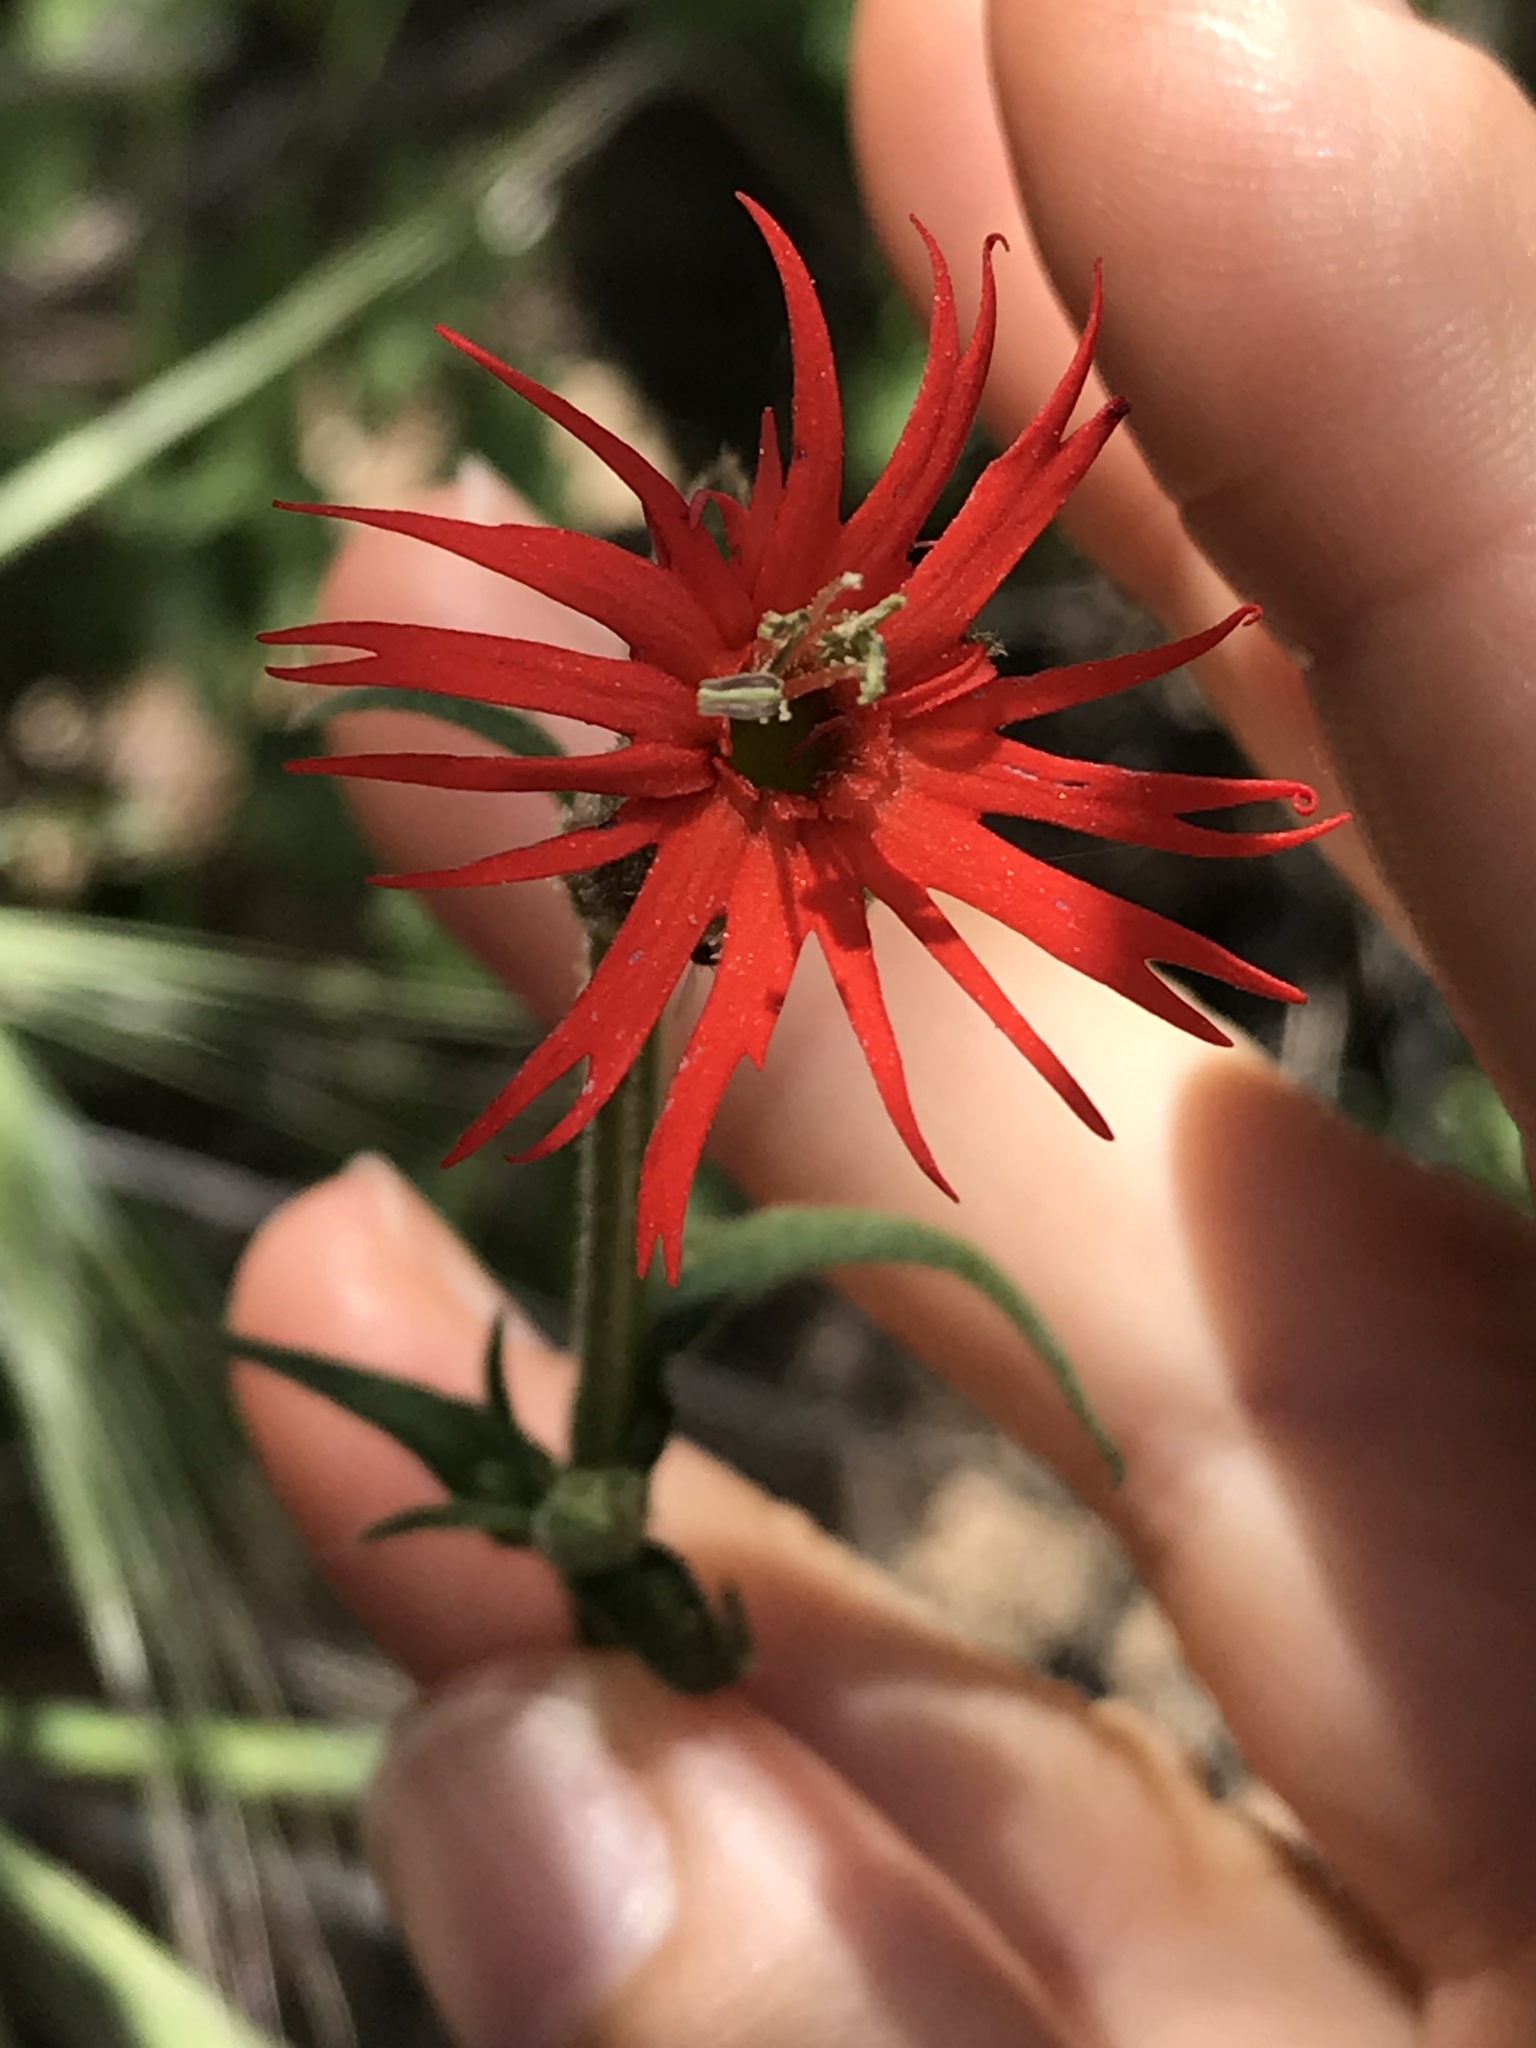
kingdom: Plantae
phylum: Tracheophyta
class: Magnoliopsida
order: Caryophyllales
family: Caryophyllaceae
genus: Silene
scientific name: Silene laciniata
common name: Indian-pink
